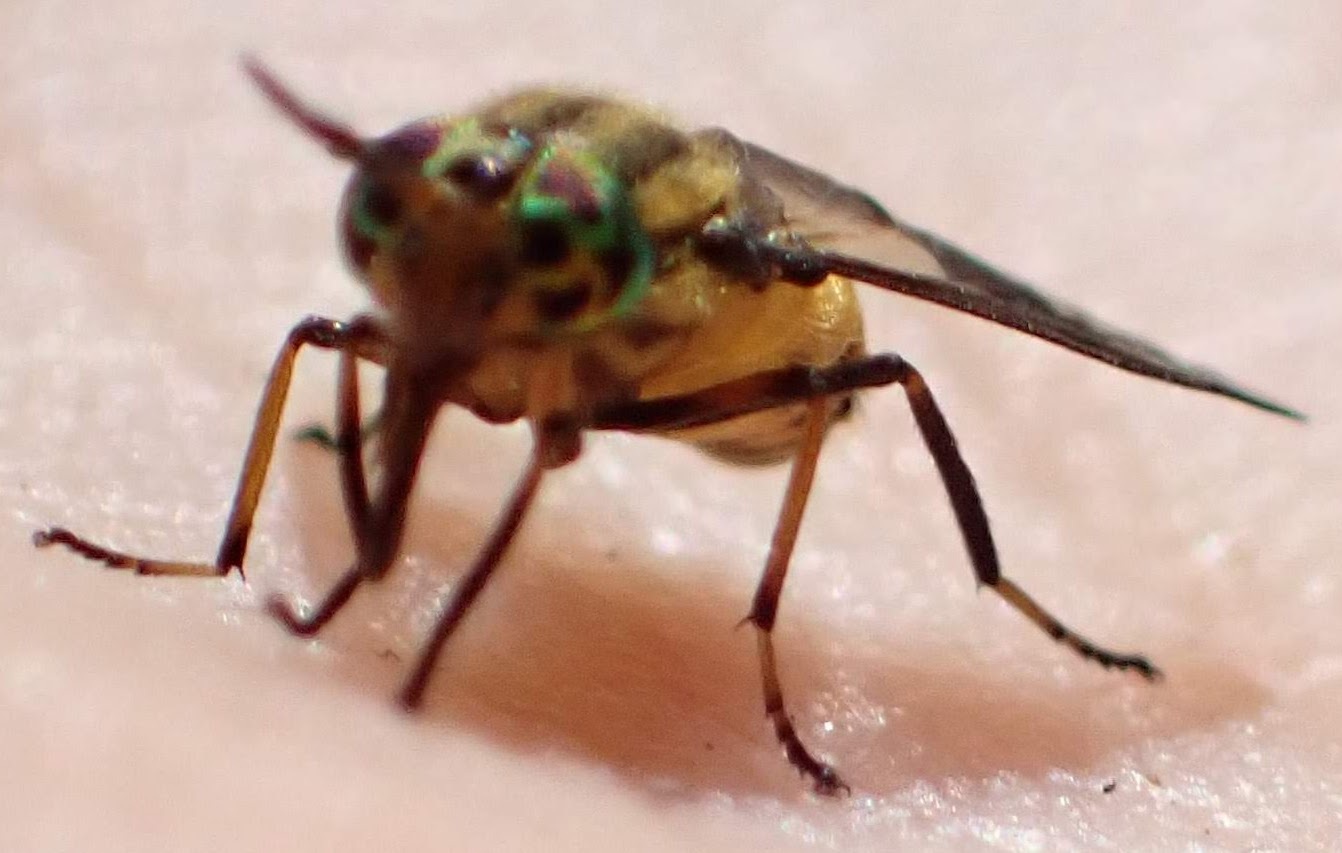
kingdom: Animalia
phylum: Arthropoda
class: Insecta
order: Diptera
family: Tabanidae
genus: Chrysops
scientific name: Chrysops geminatus
